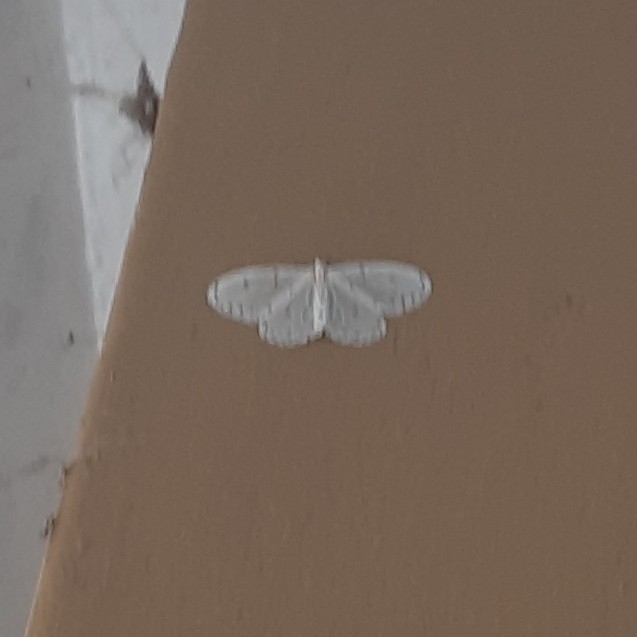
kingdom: Animalia
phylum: Arthropoda
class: Insecta
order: Lepidoptera
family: Geometridae
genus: Naxa
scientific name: Naxa textilis
